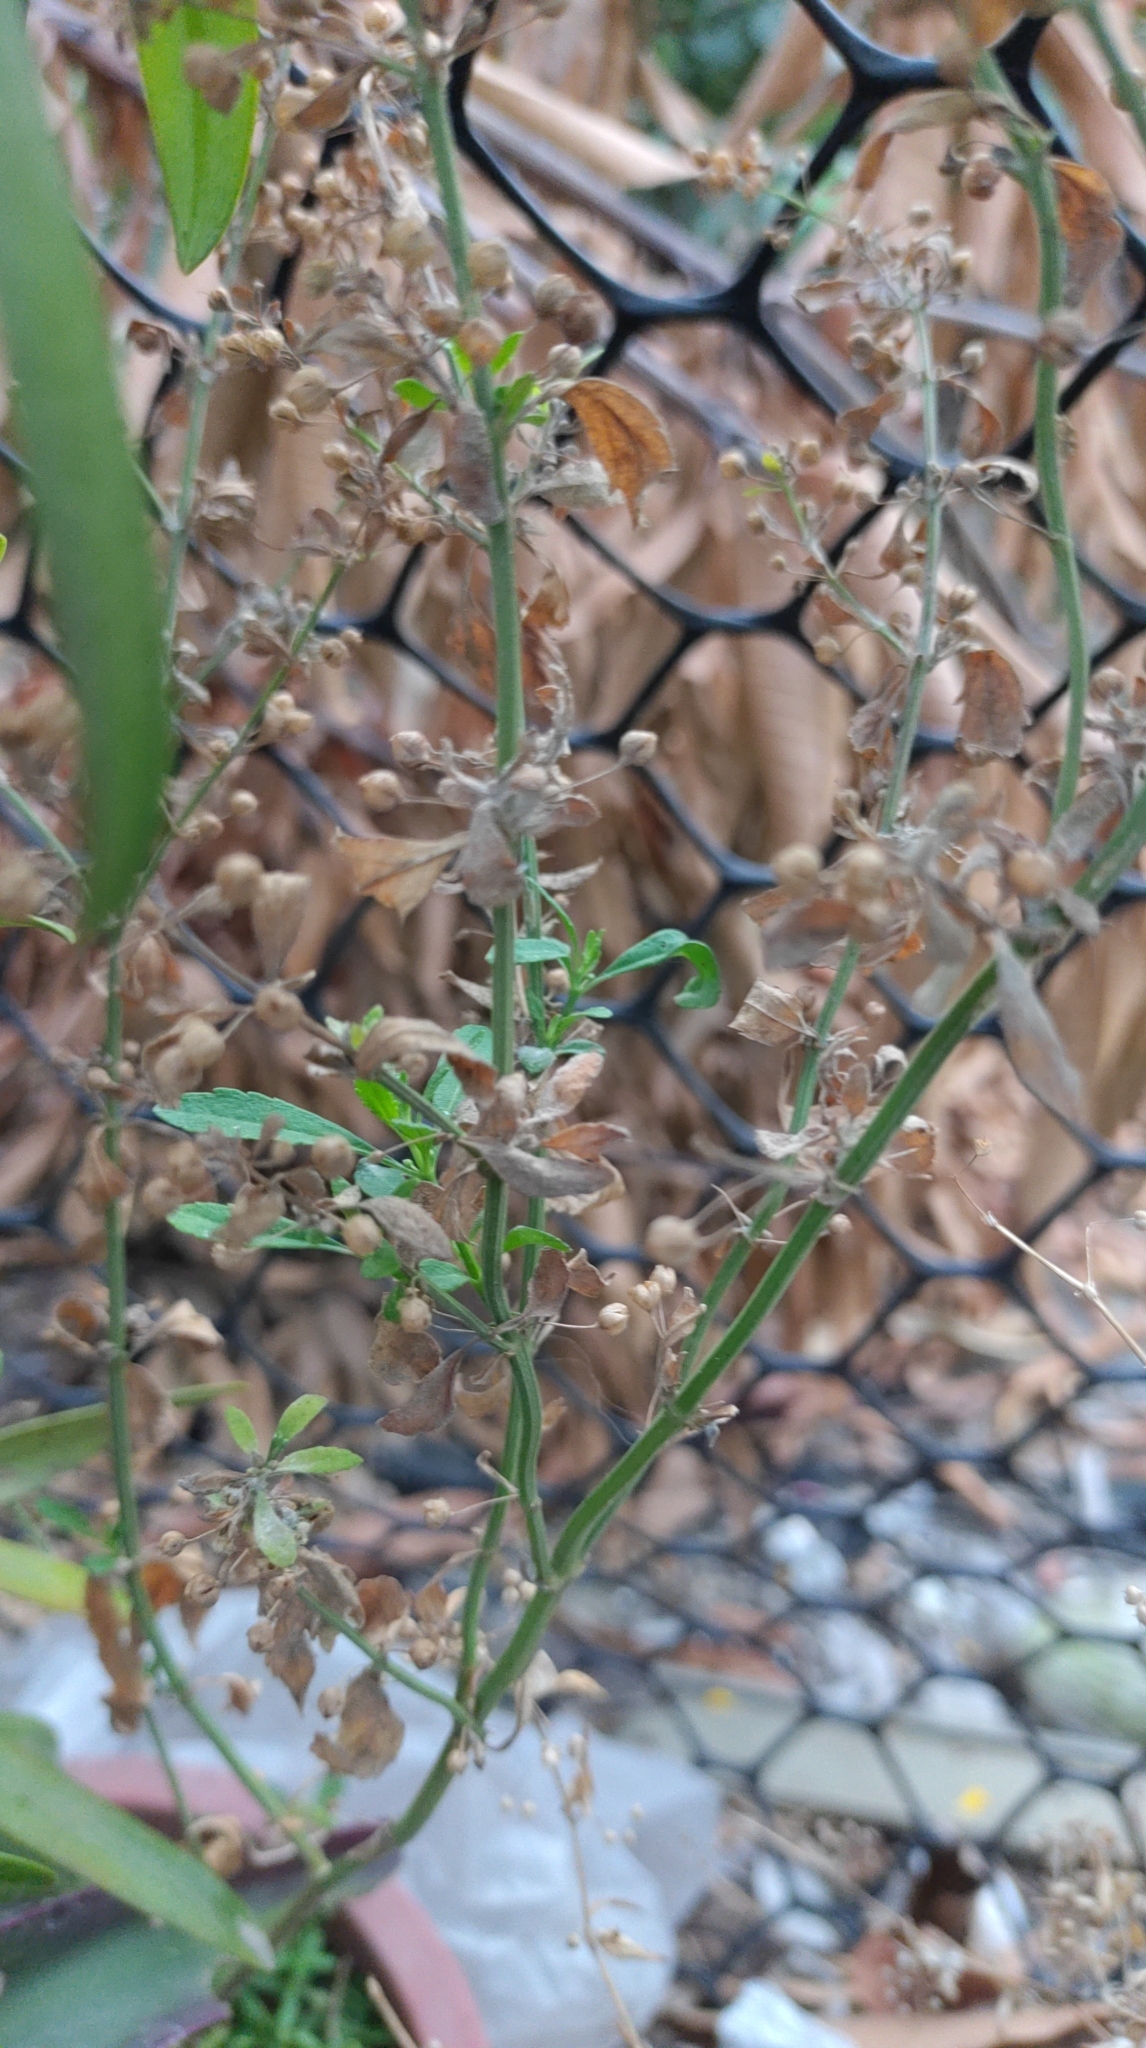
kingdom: Plantae
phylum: Tracheophyta
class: Magnoliopsida
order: Lamiales
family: Plantaginaceae
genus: Scoparia
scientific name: Scoparia dulcis
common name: Scoparia-weed
